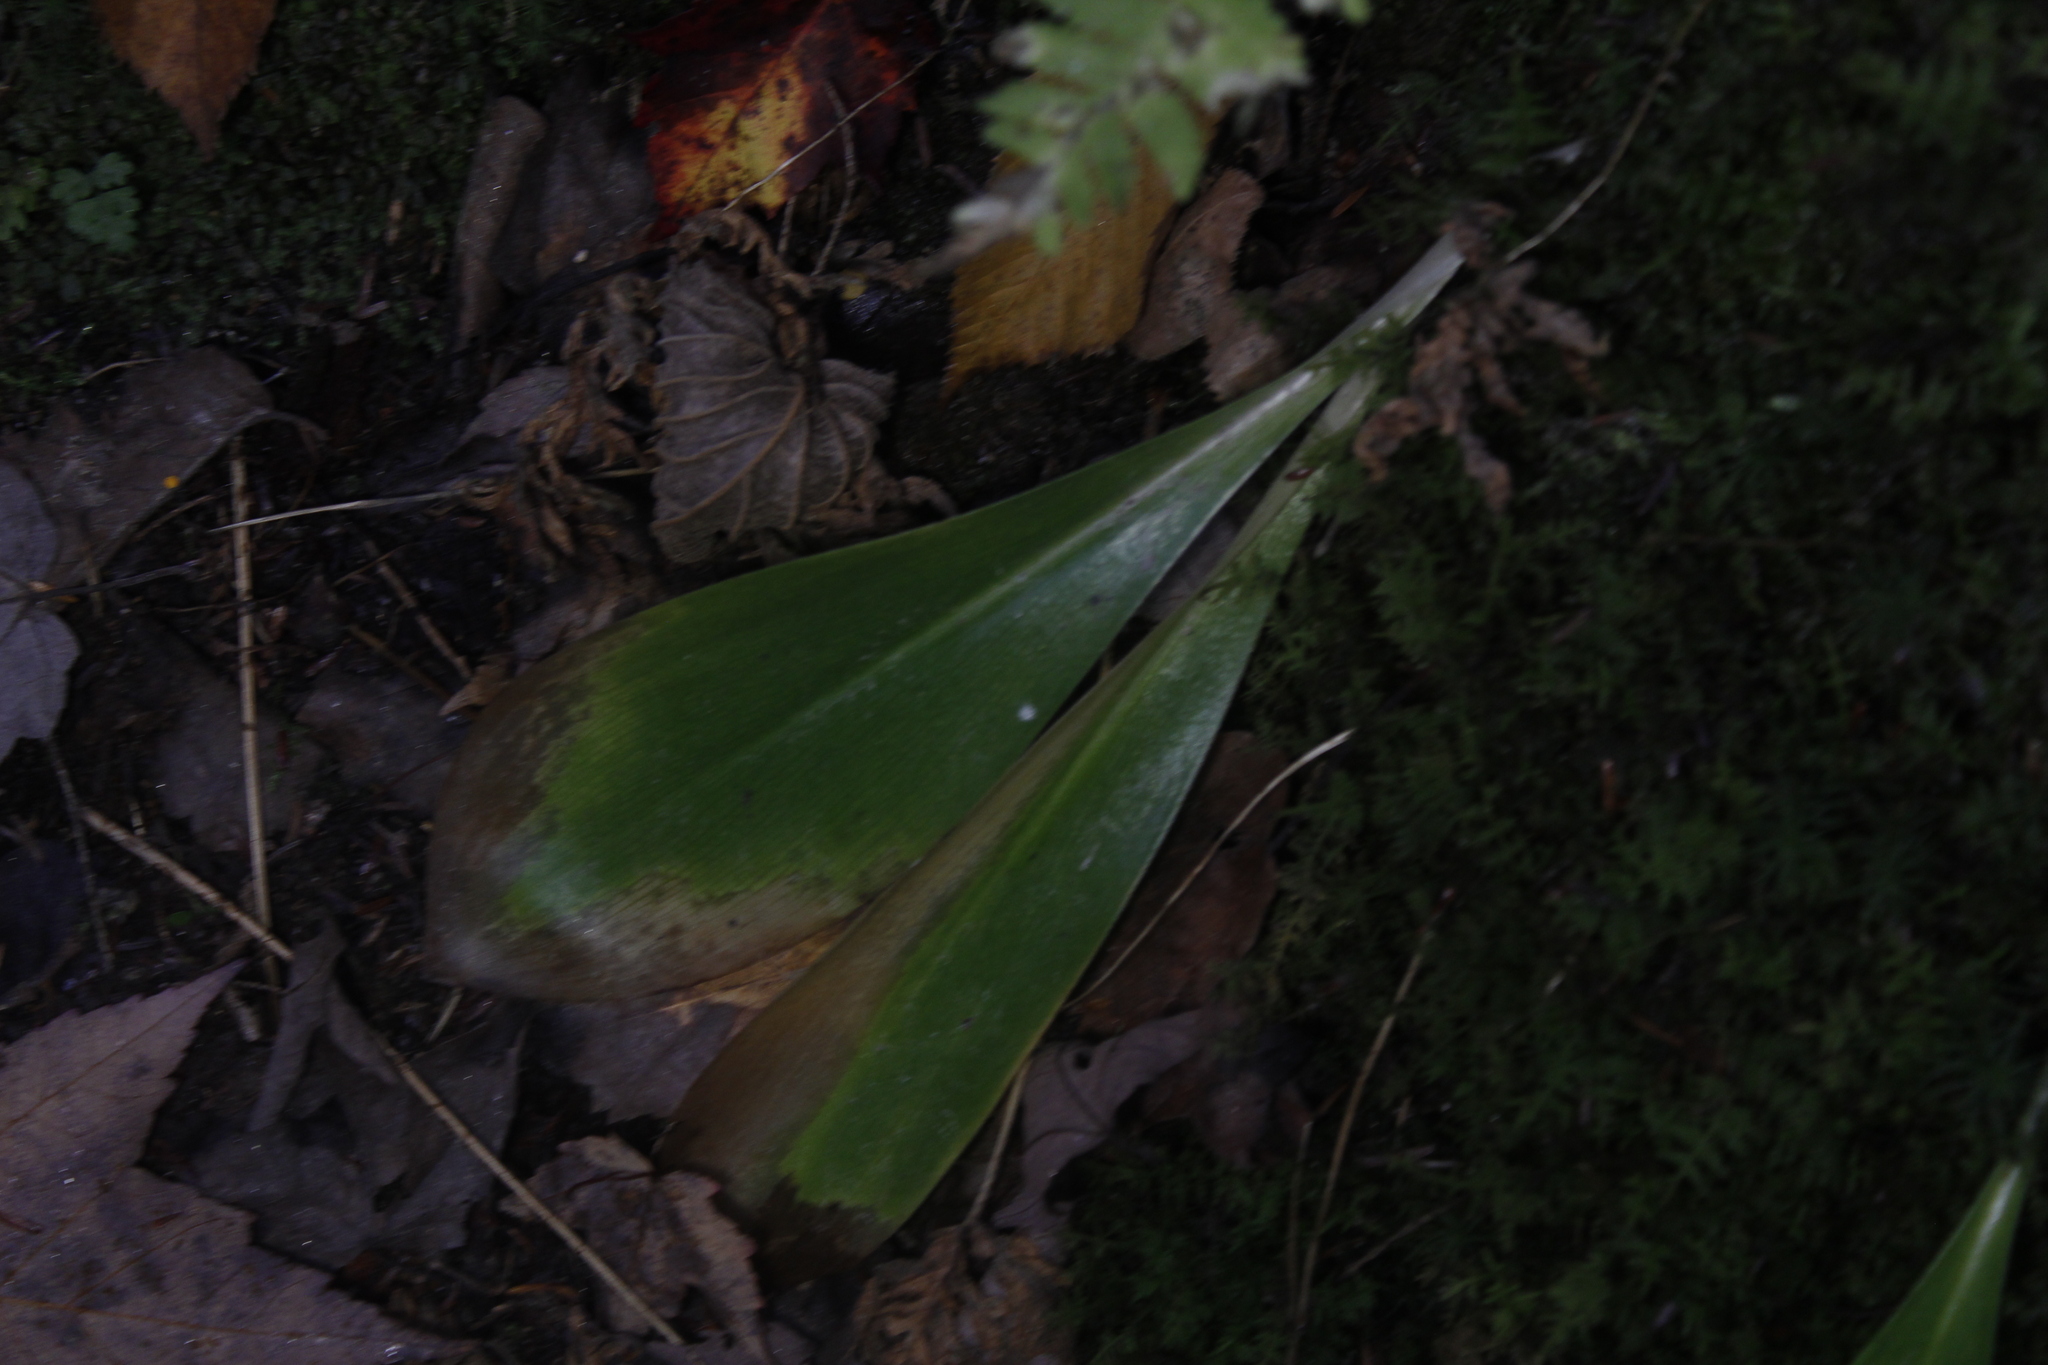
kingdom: Plantae
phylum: Tracheophyta
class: Liliopsida
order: Liliales
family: Liliaceae
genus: Clintonia
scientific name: Clintonia borealis
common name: Yellow clintonia
